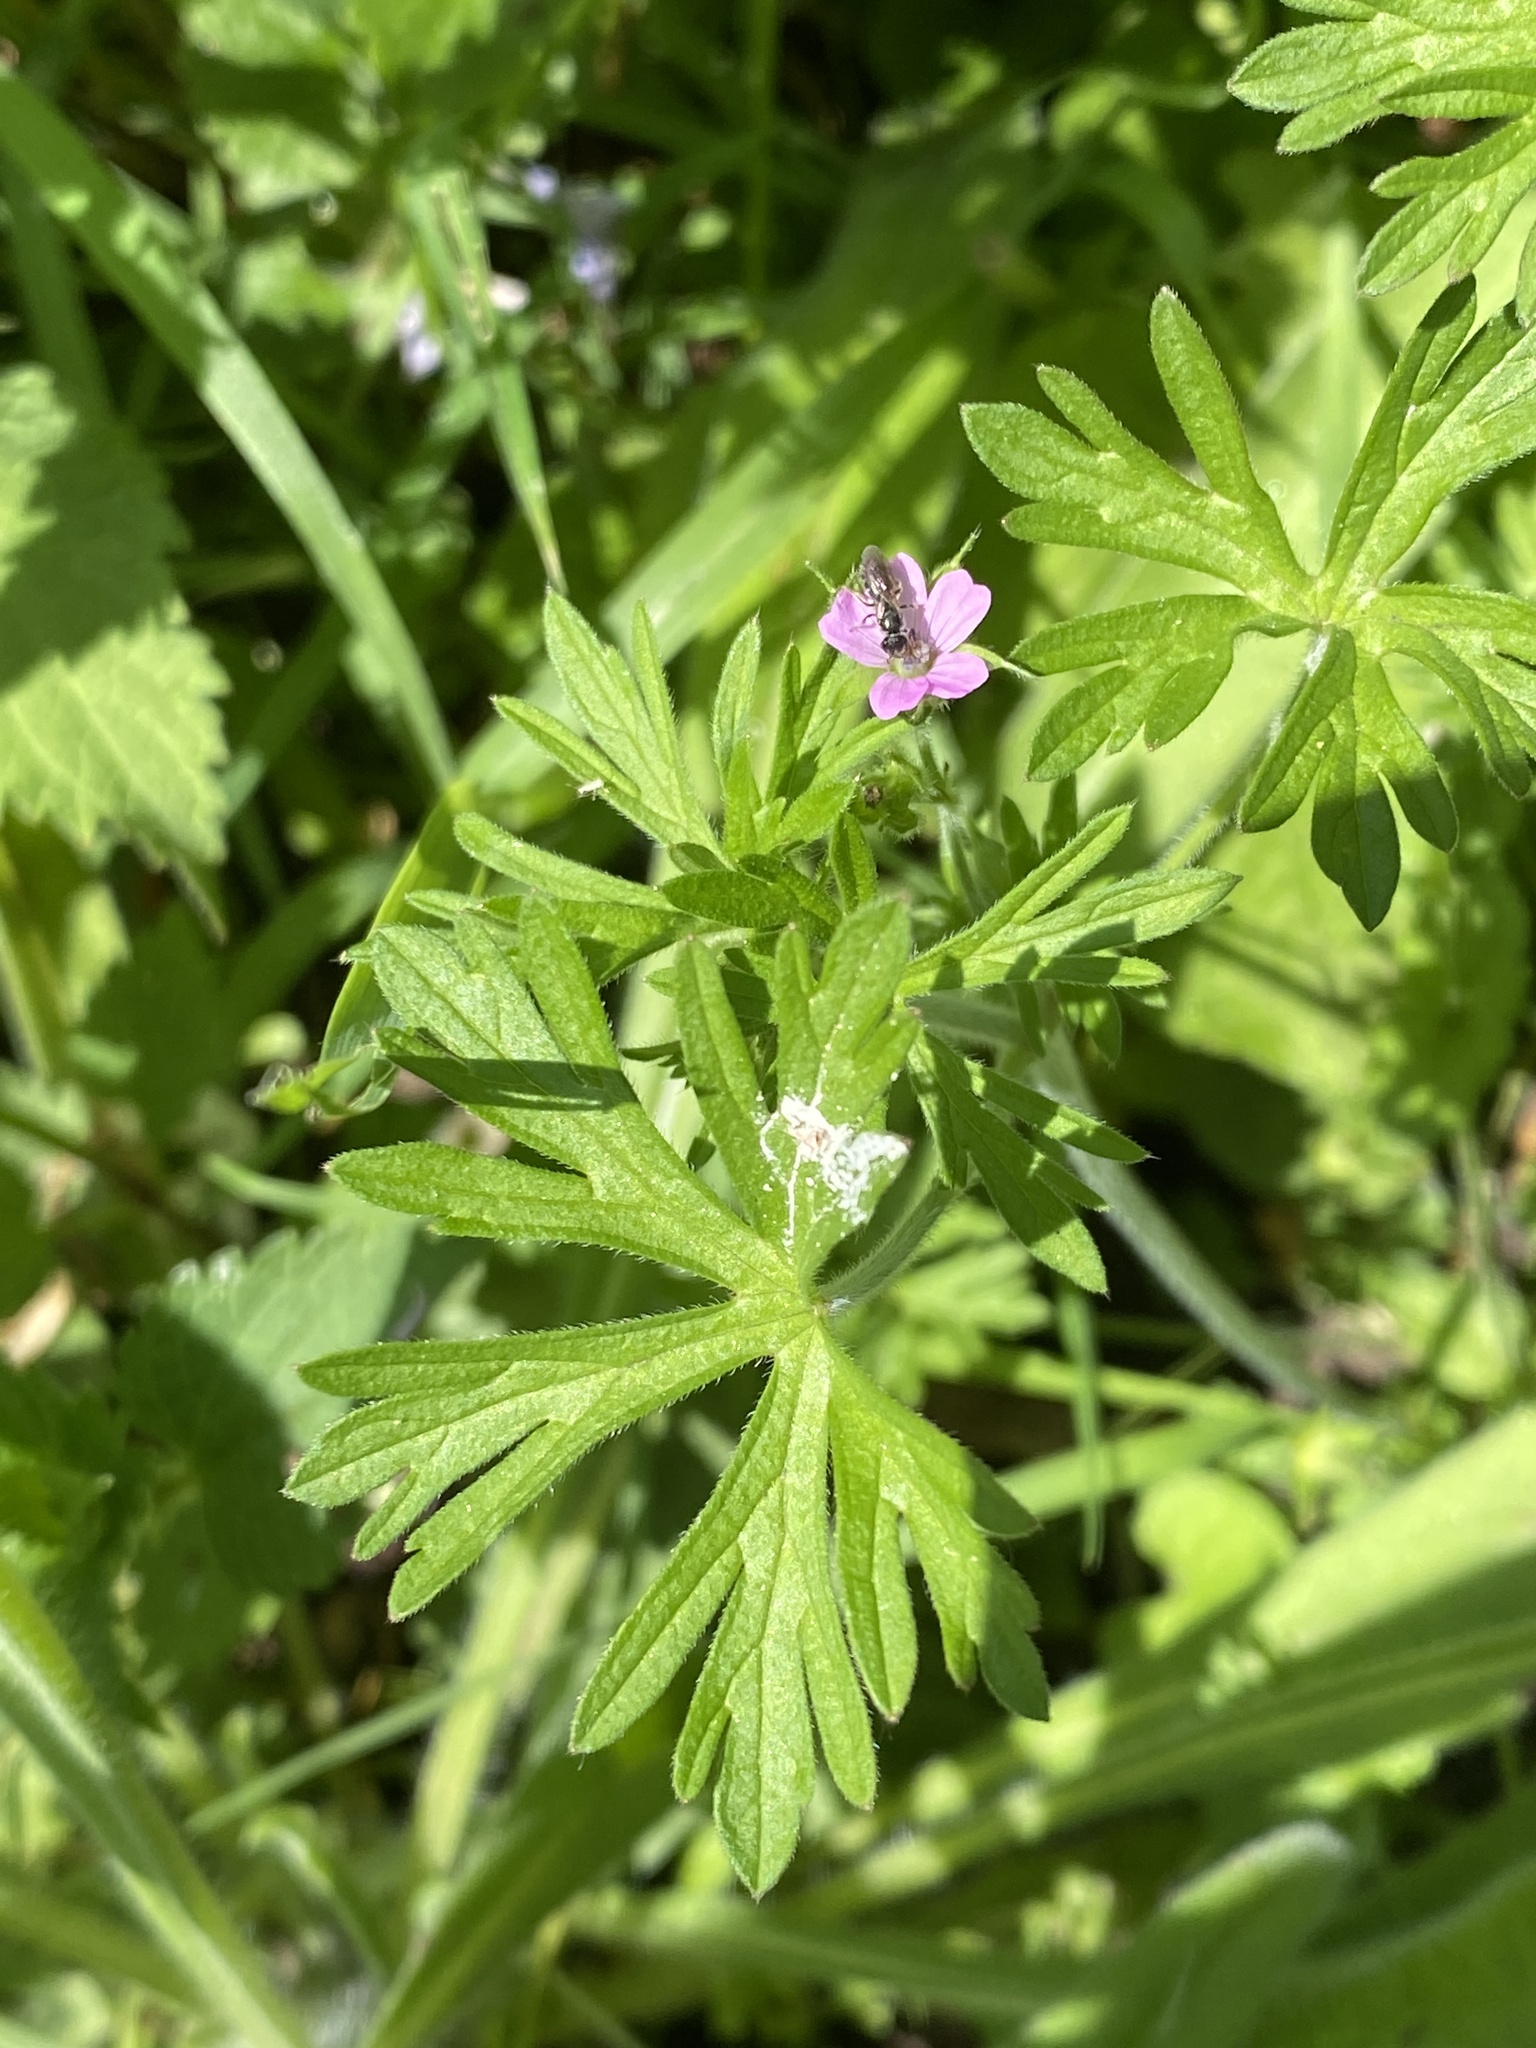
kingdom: Plantae
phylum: Tracheophyta
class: Magnoliopsida
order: Geraniales
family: Geraniaceae
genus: Geranium
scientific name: Geranium dissectum
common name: Cut-leaved crane's-bill
